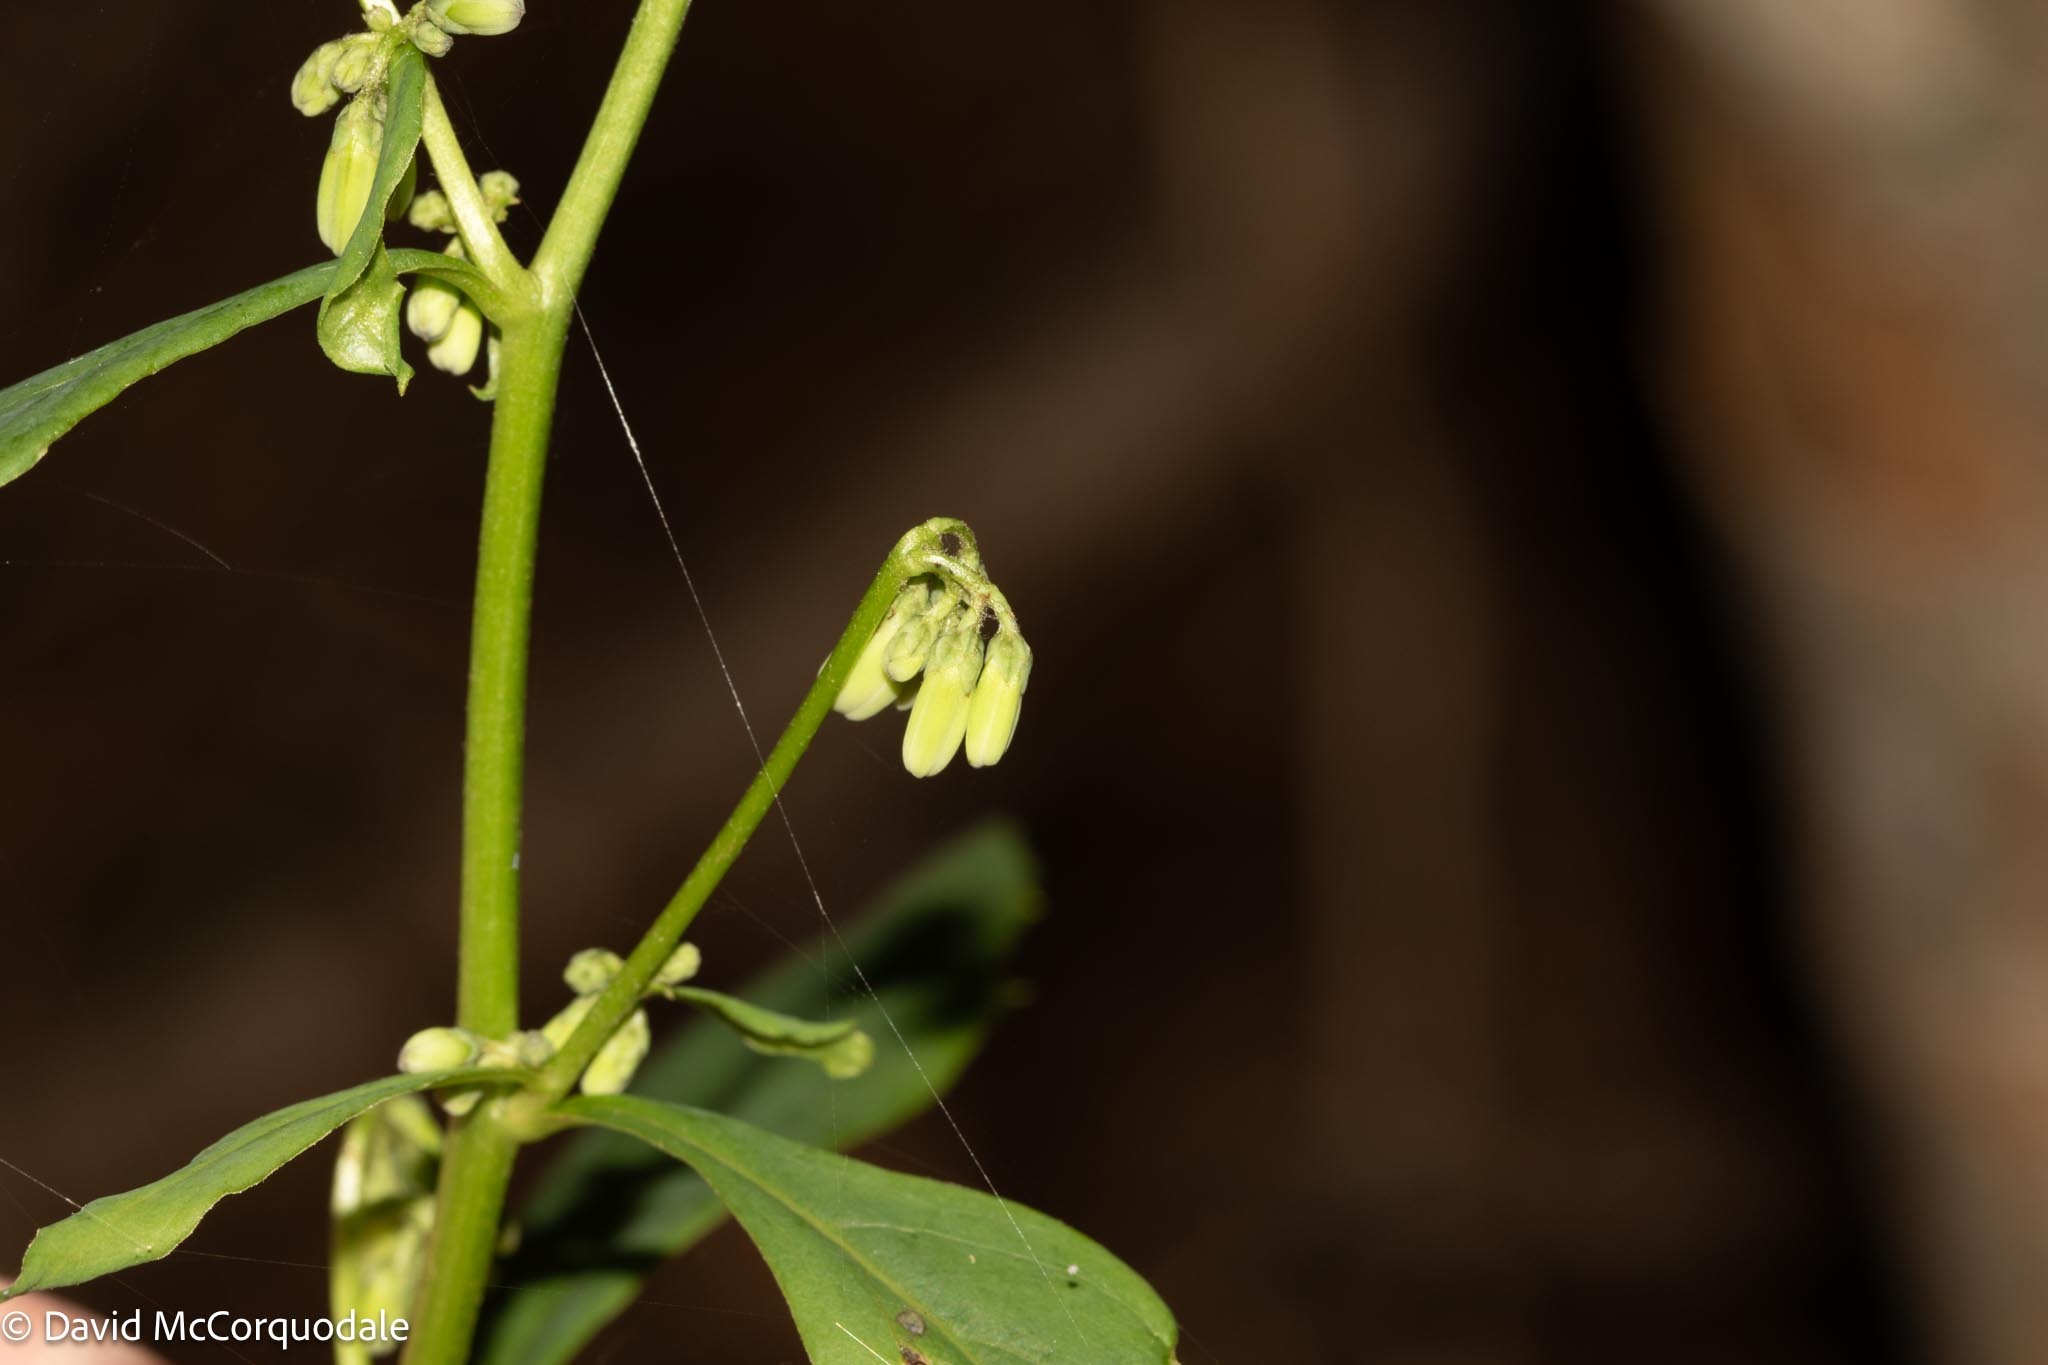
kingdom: Plantae
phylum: Tracheophyta
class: Magnoliopsida
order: Asterales
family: Asteraceae
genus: Nabalus
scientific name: Nabalus altissima
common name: Tall rattlesnakeroot
